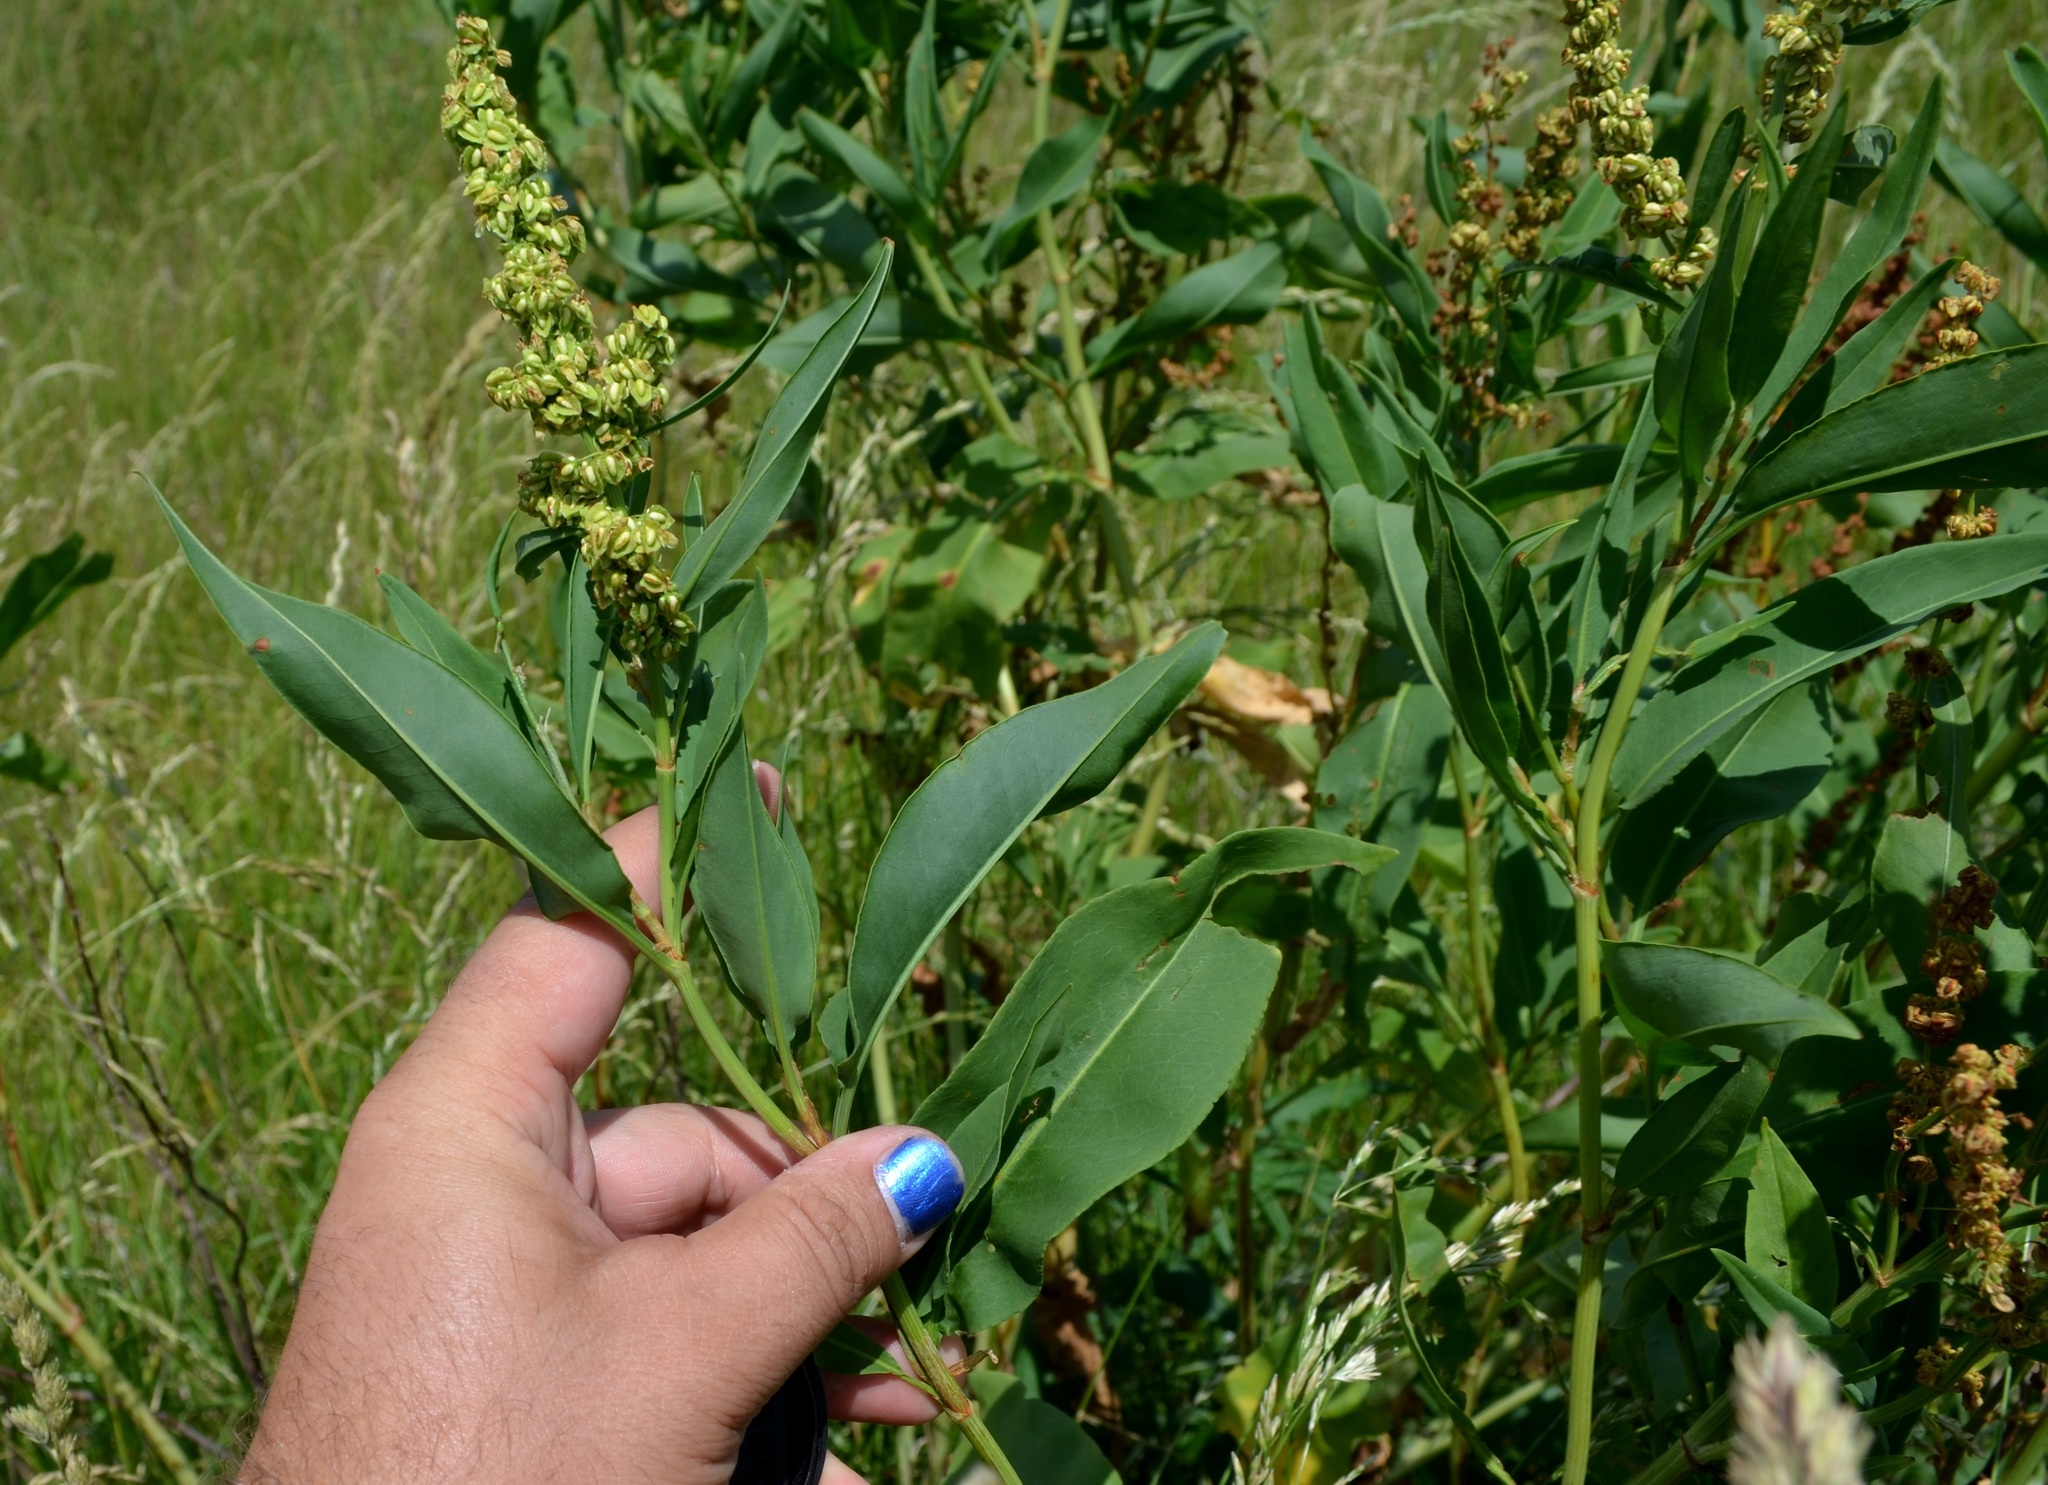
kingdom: Plantae
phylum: Tracheophyta
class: Magnoliopsida
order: Caryophyllales
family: Polygonaceae
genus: Rumex
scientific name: Rumex altissimus
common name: Smooth dock
